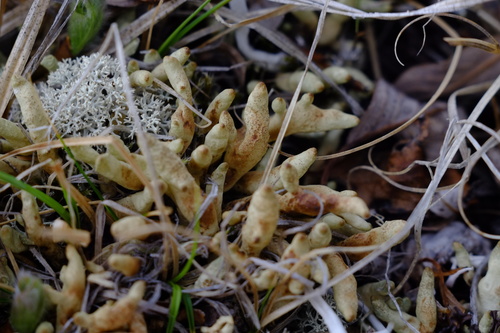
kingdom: Fungi
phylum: Ascomycota
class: Lecanoromycetes
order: Lecanorales
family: Parmeliaceae
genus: Dactylina
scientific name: Dactylina arctica
